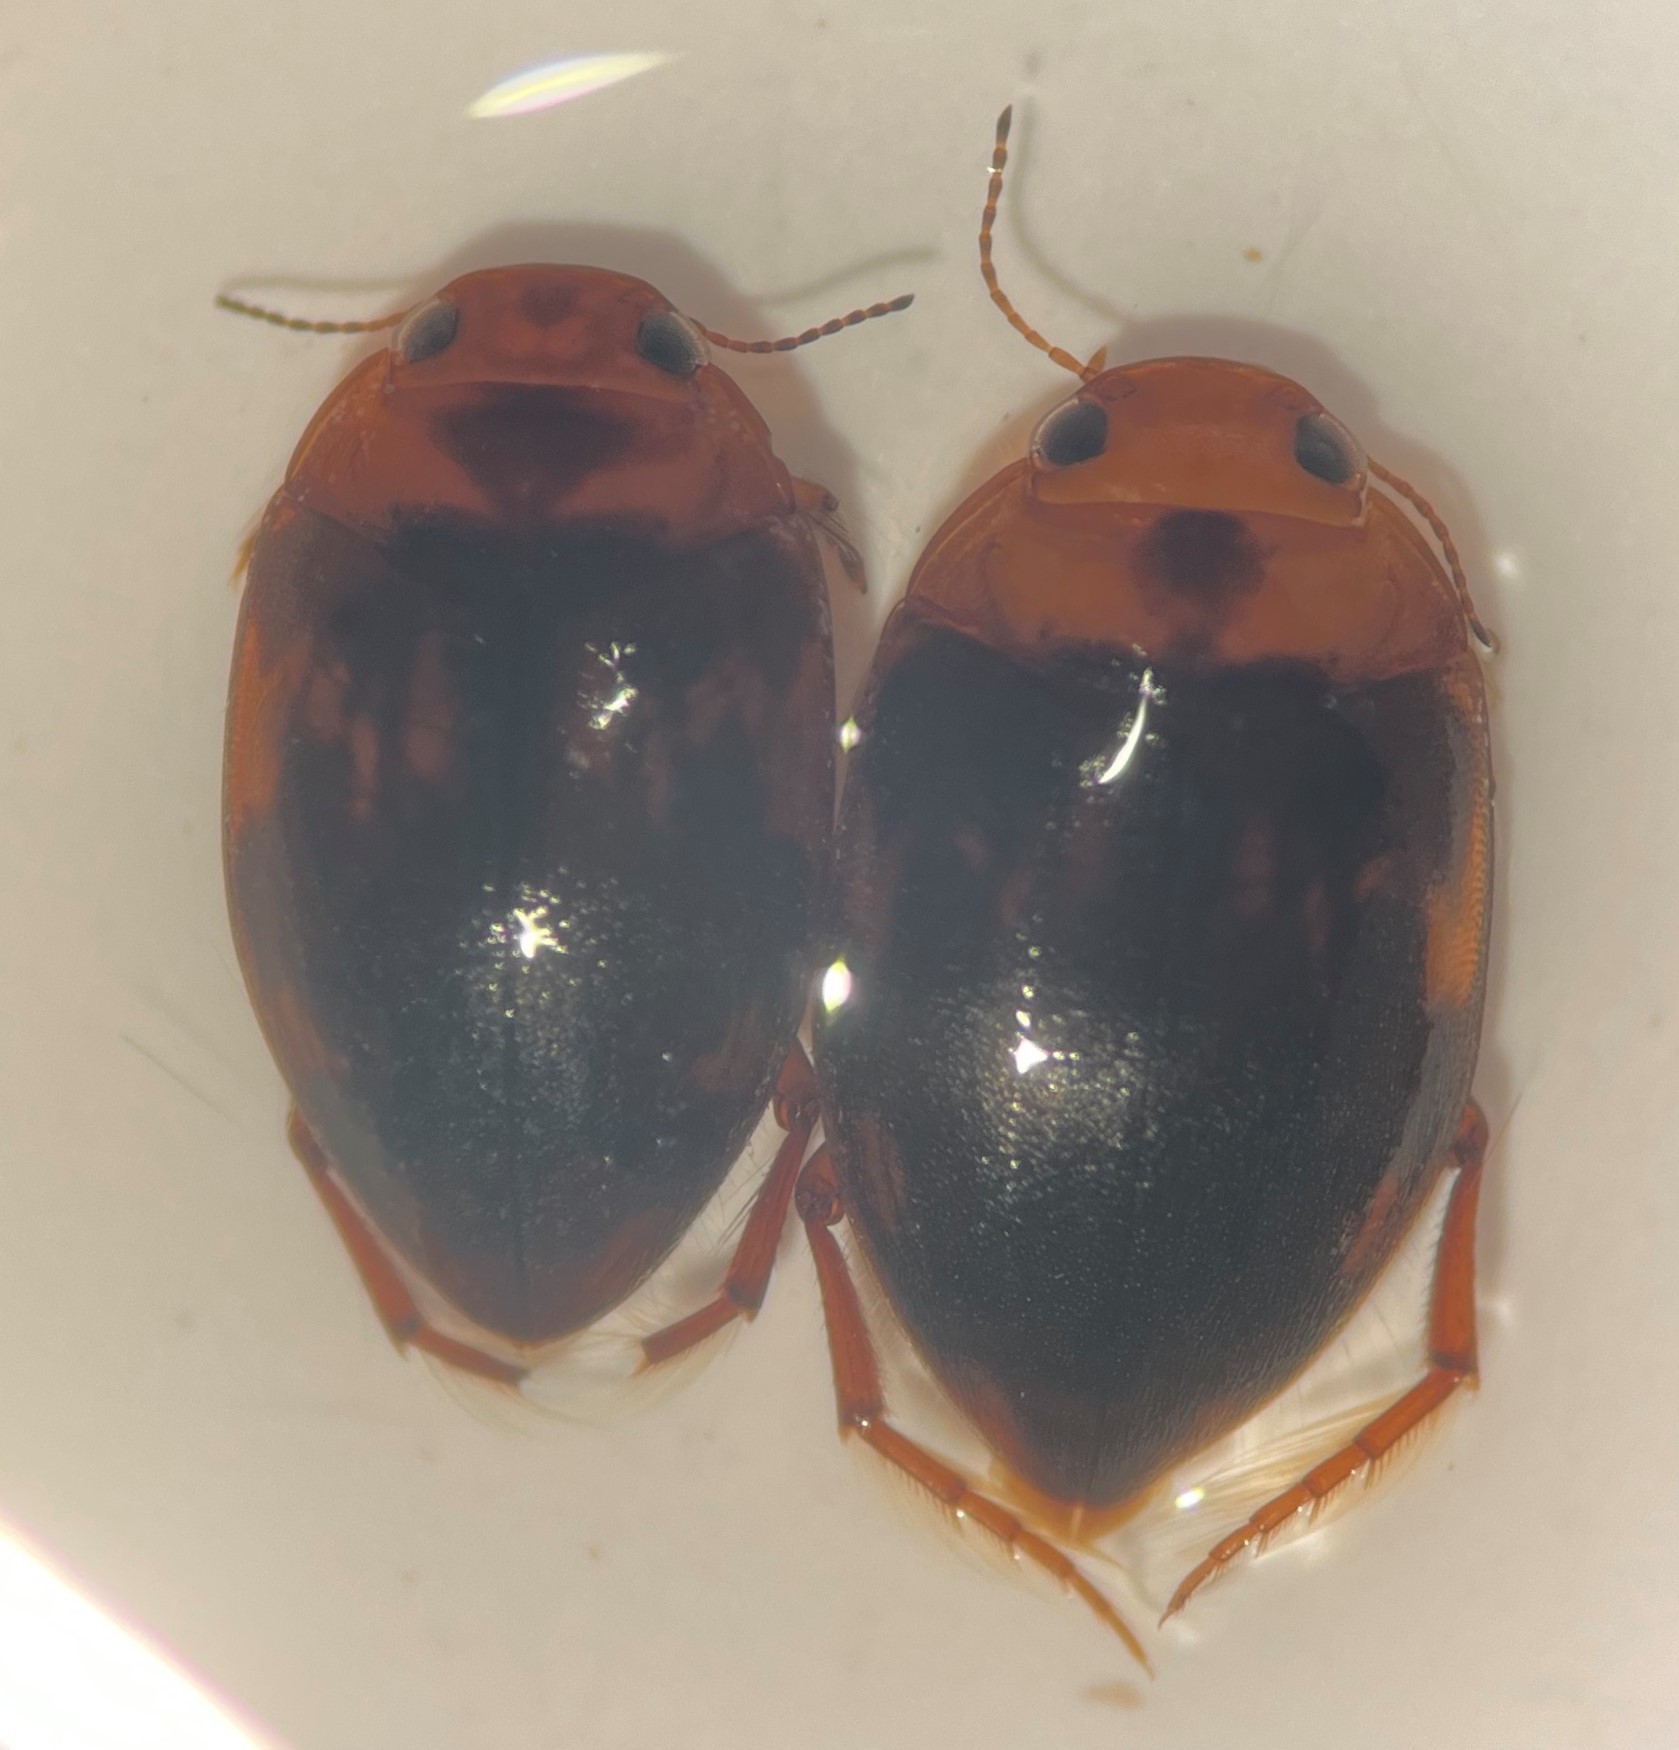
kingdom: Animalia
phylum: Arthropoda
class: Insecta
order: Coleoptera
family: Dytiscidae
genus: Neoporus
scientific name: Neoporus cimicoides
